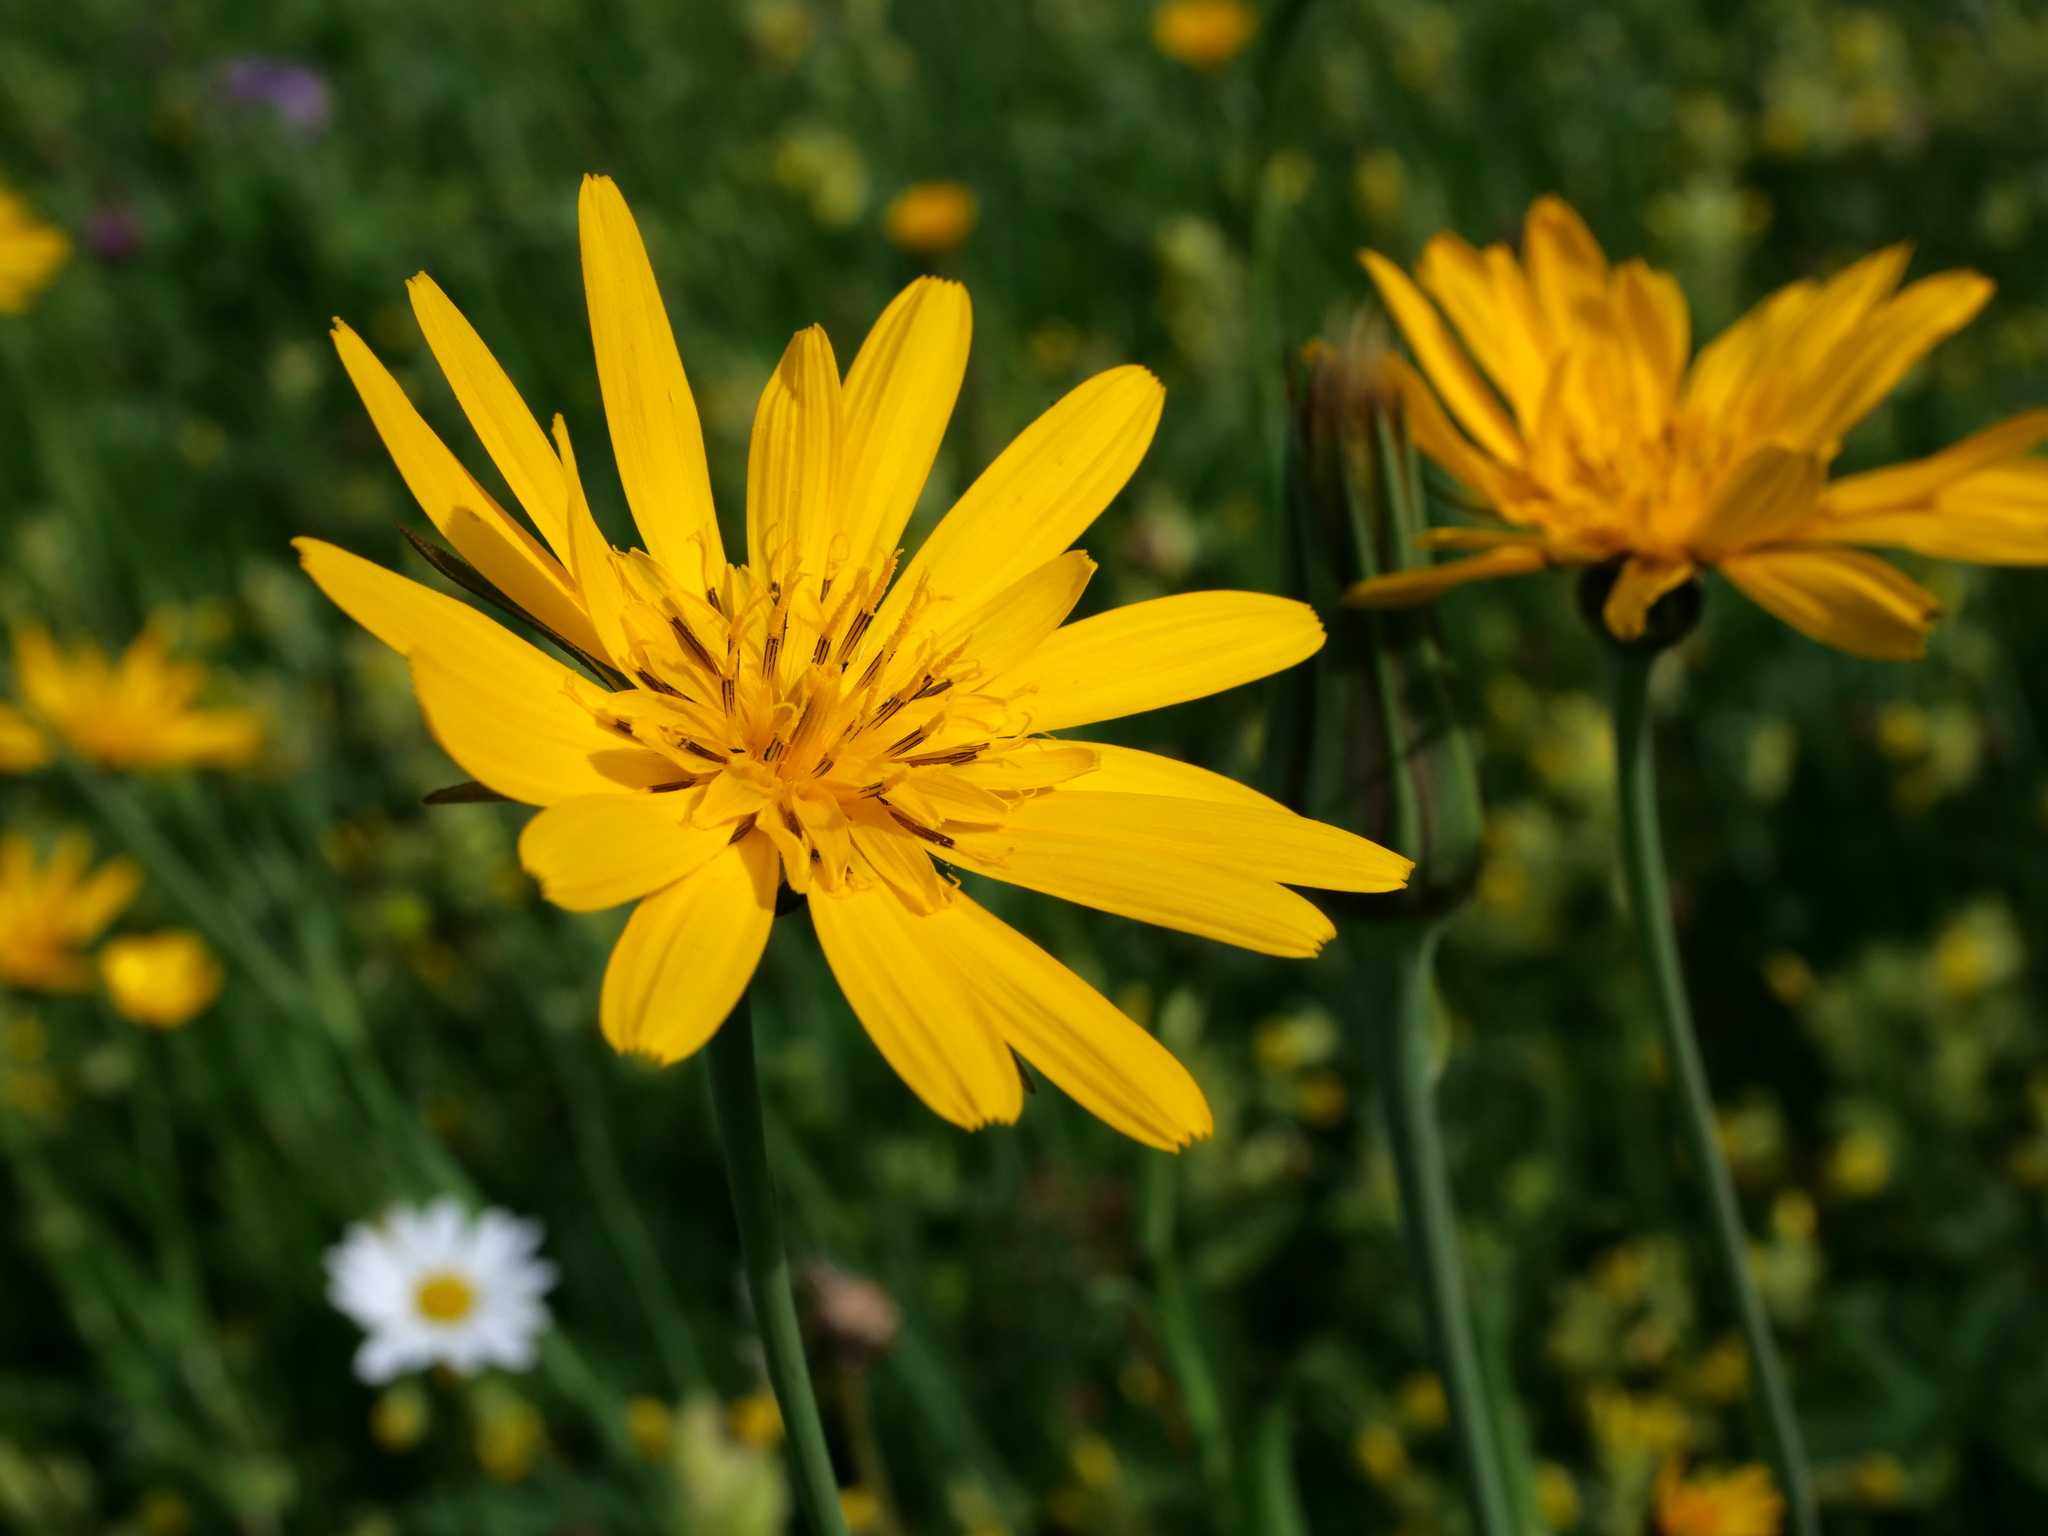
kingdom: Plantae
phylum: Tracheophyta
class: Magnoliopsida
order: Asterales
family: Asteraceae
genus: Tragopogon
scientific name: Tragopogon orientalis
